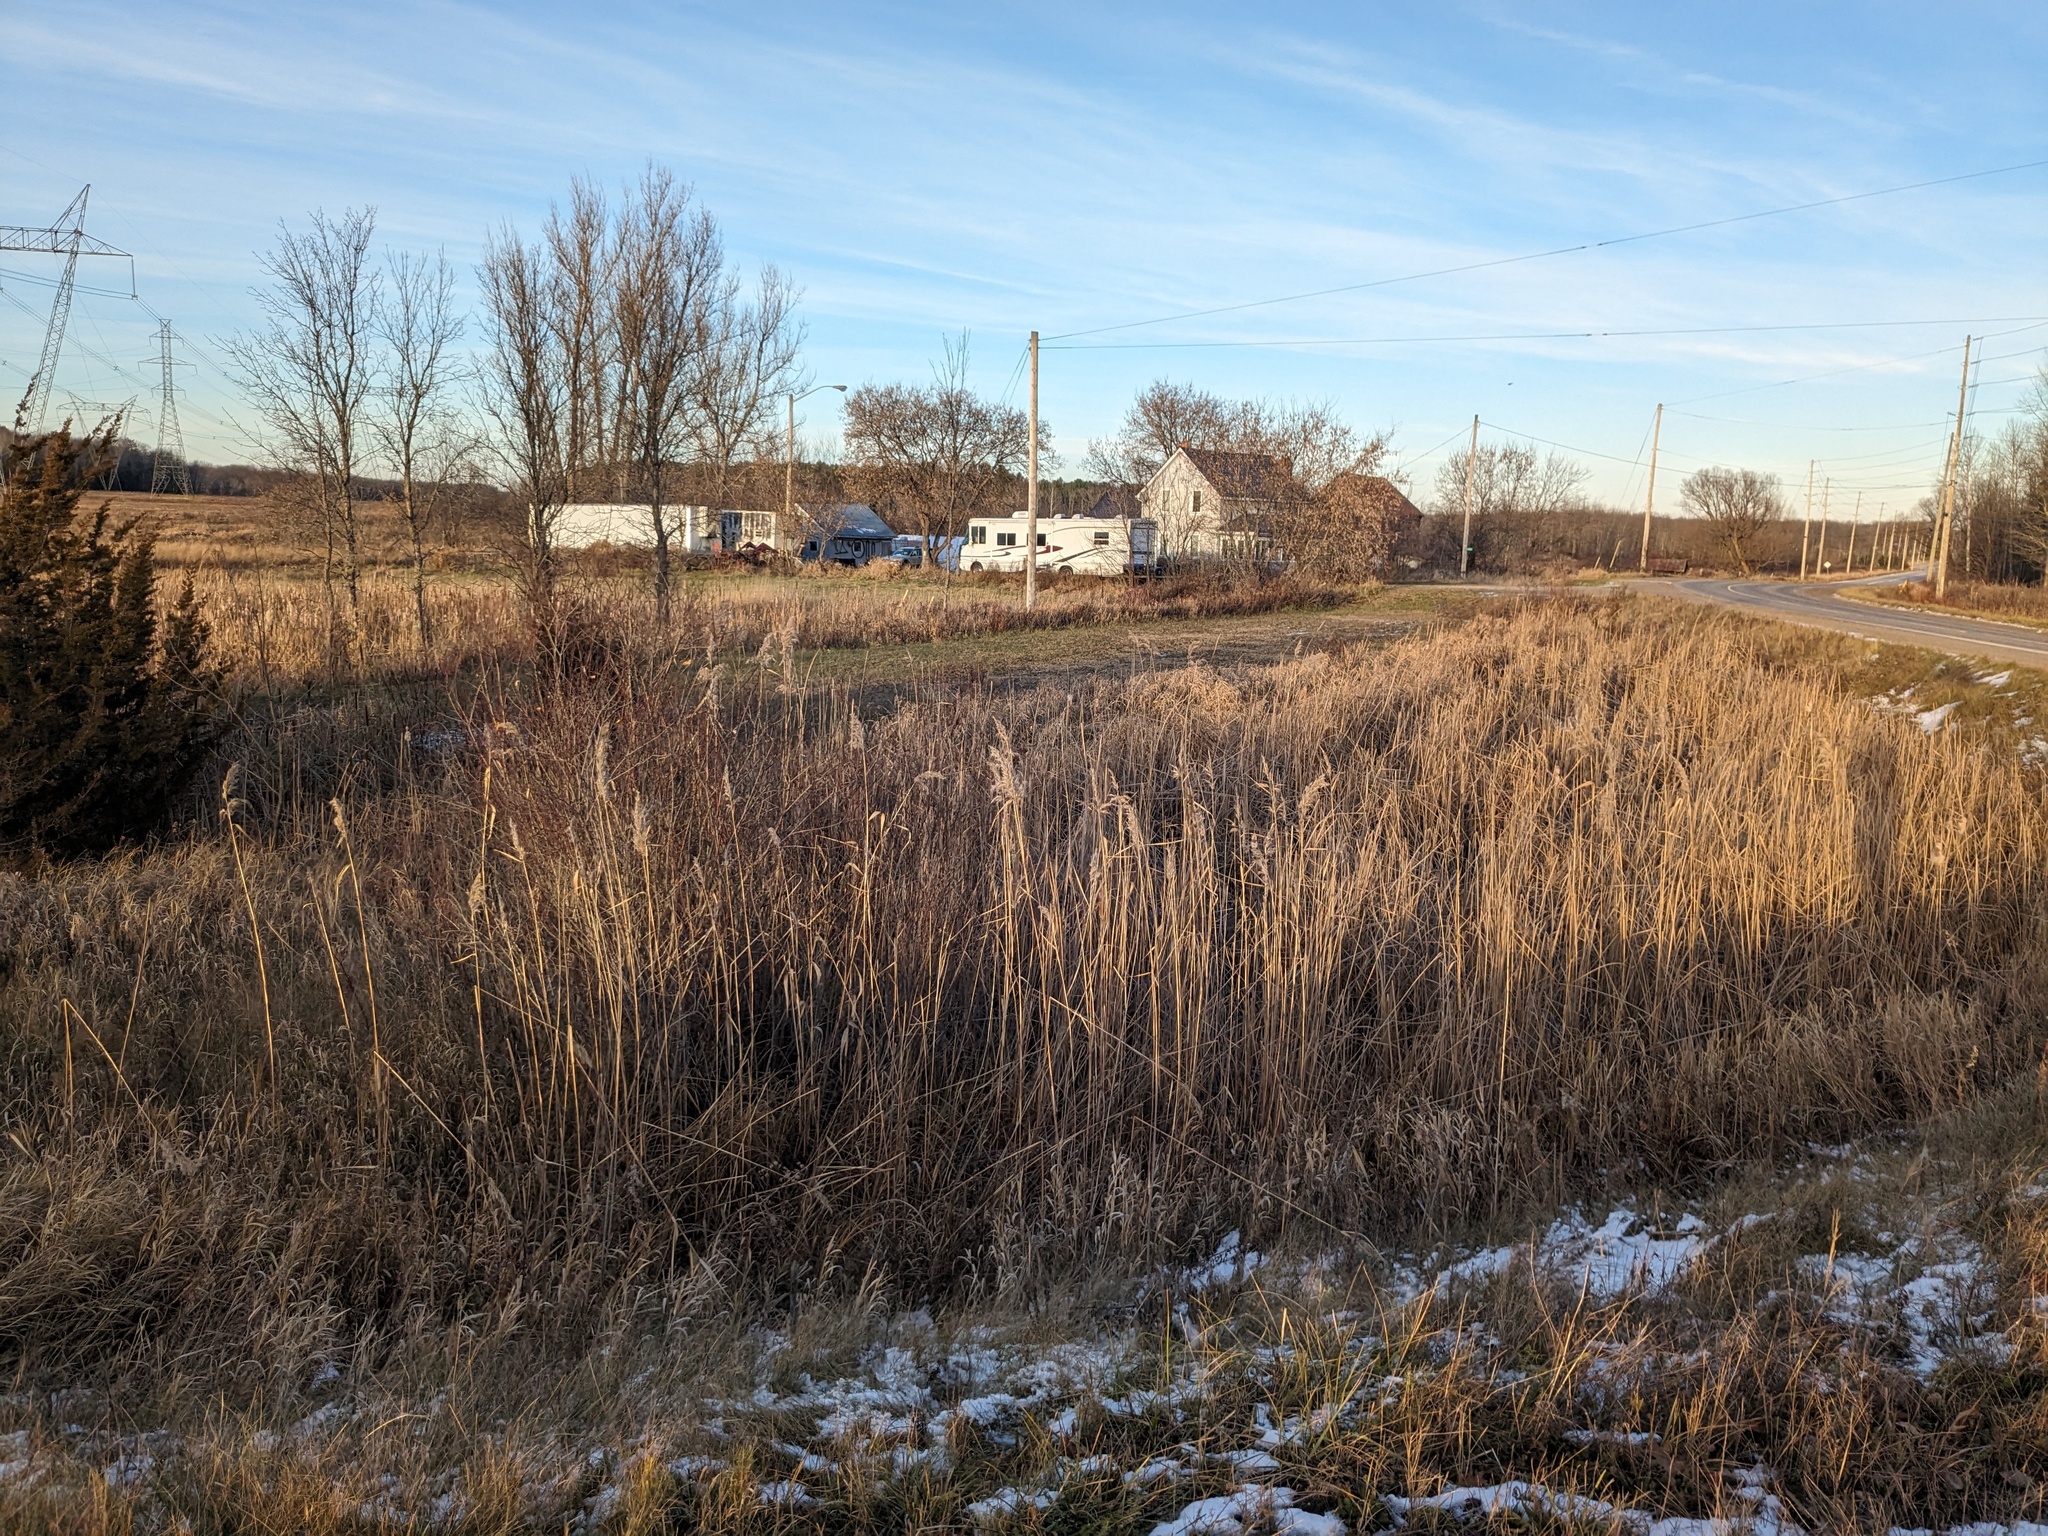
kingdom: Plantae
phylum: Tracheophyta
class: Liliopsida
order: Poales
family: Poaceae
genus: Phragmites
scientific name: Phragmites australis
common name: Common reed
